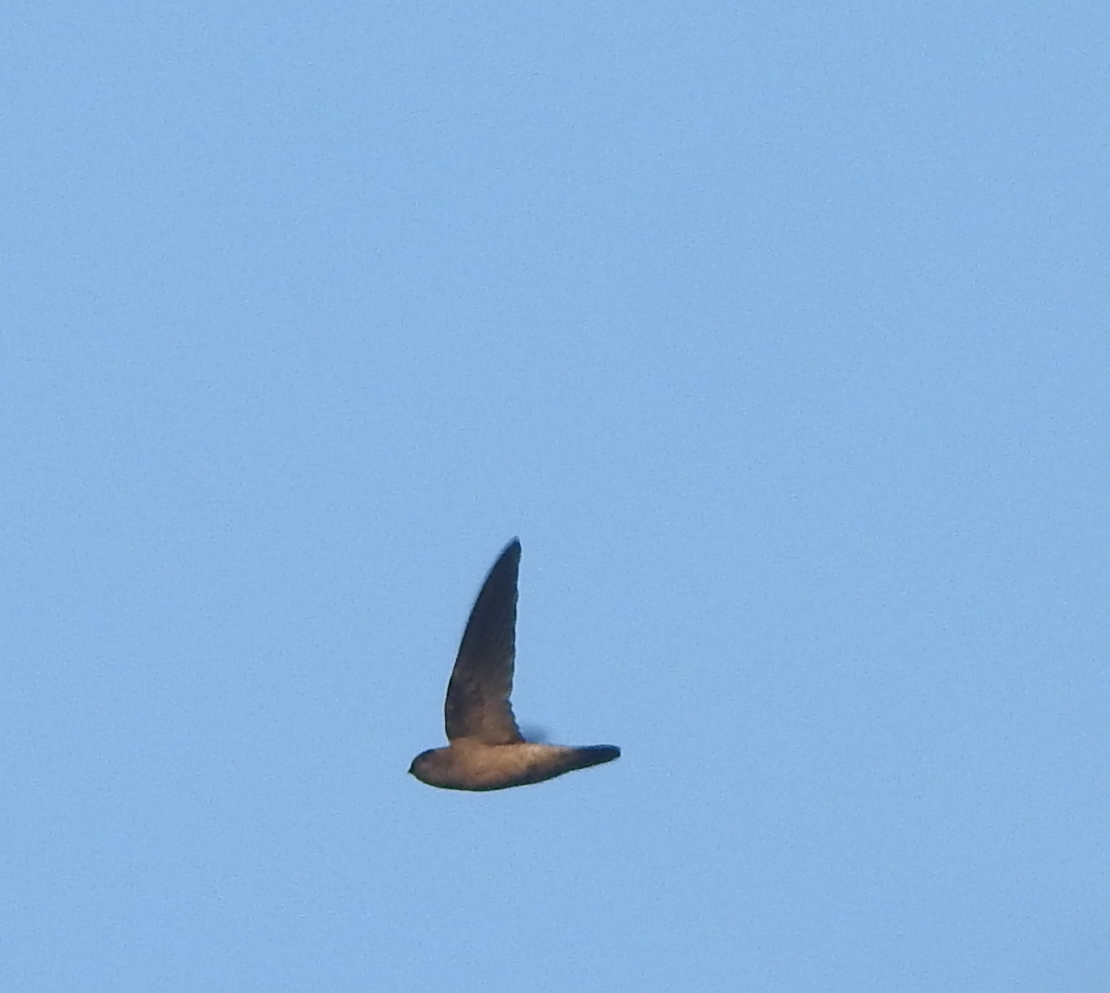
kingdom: Animalia
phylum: Chordata
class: Aves
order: Apodiformes
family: Apodidae
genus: Aerodramus
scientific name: Aerodramus
